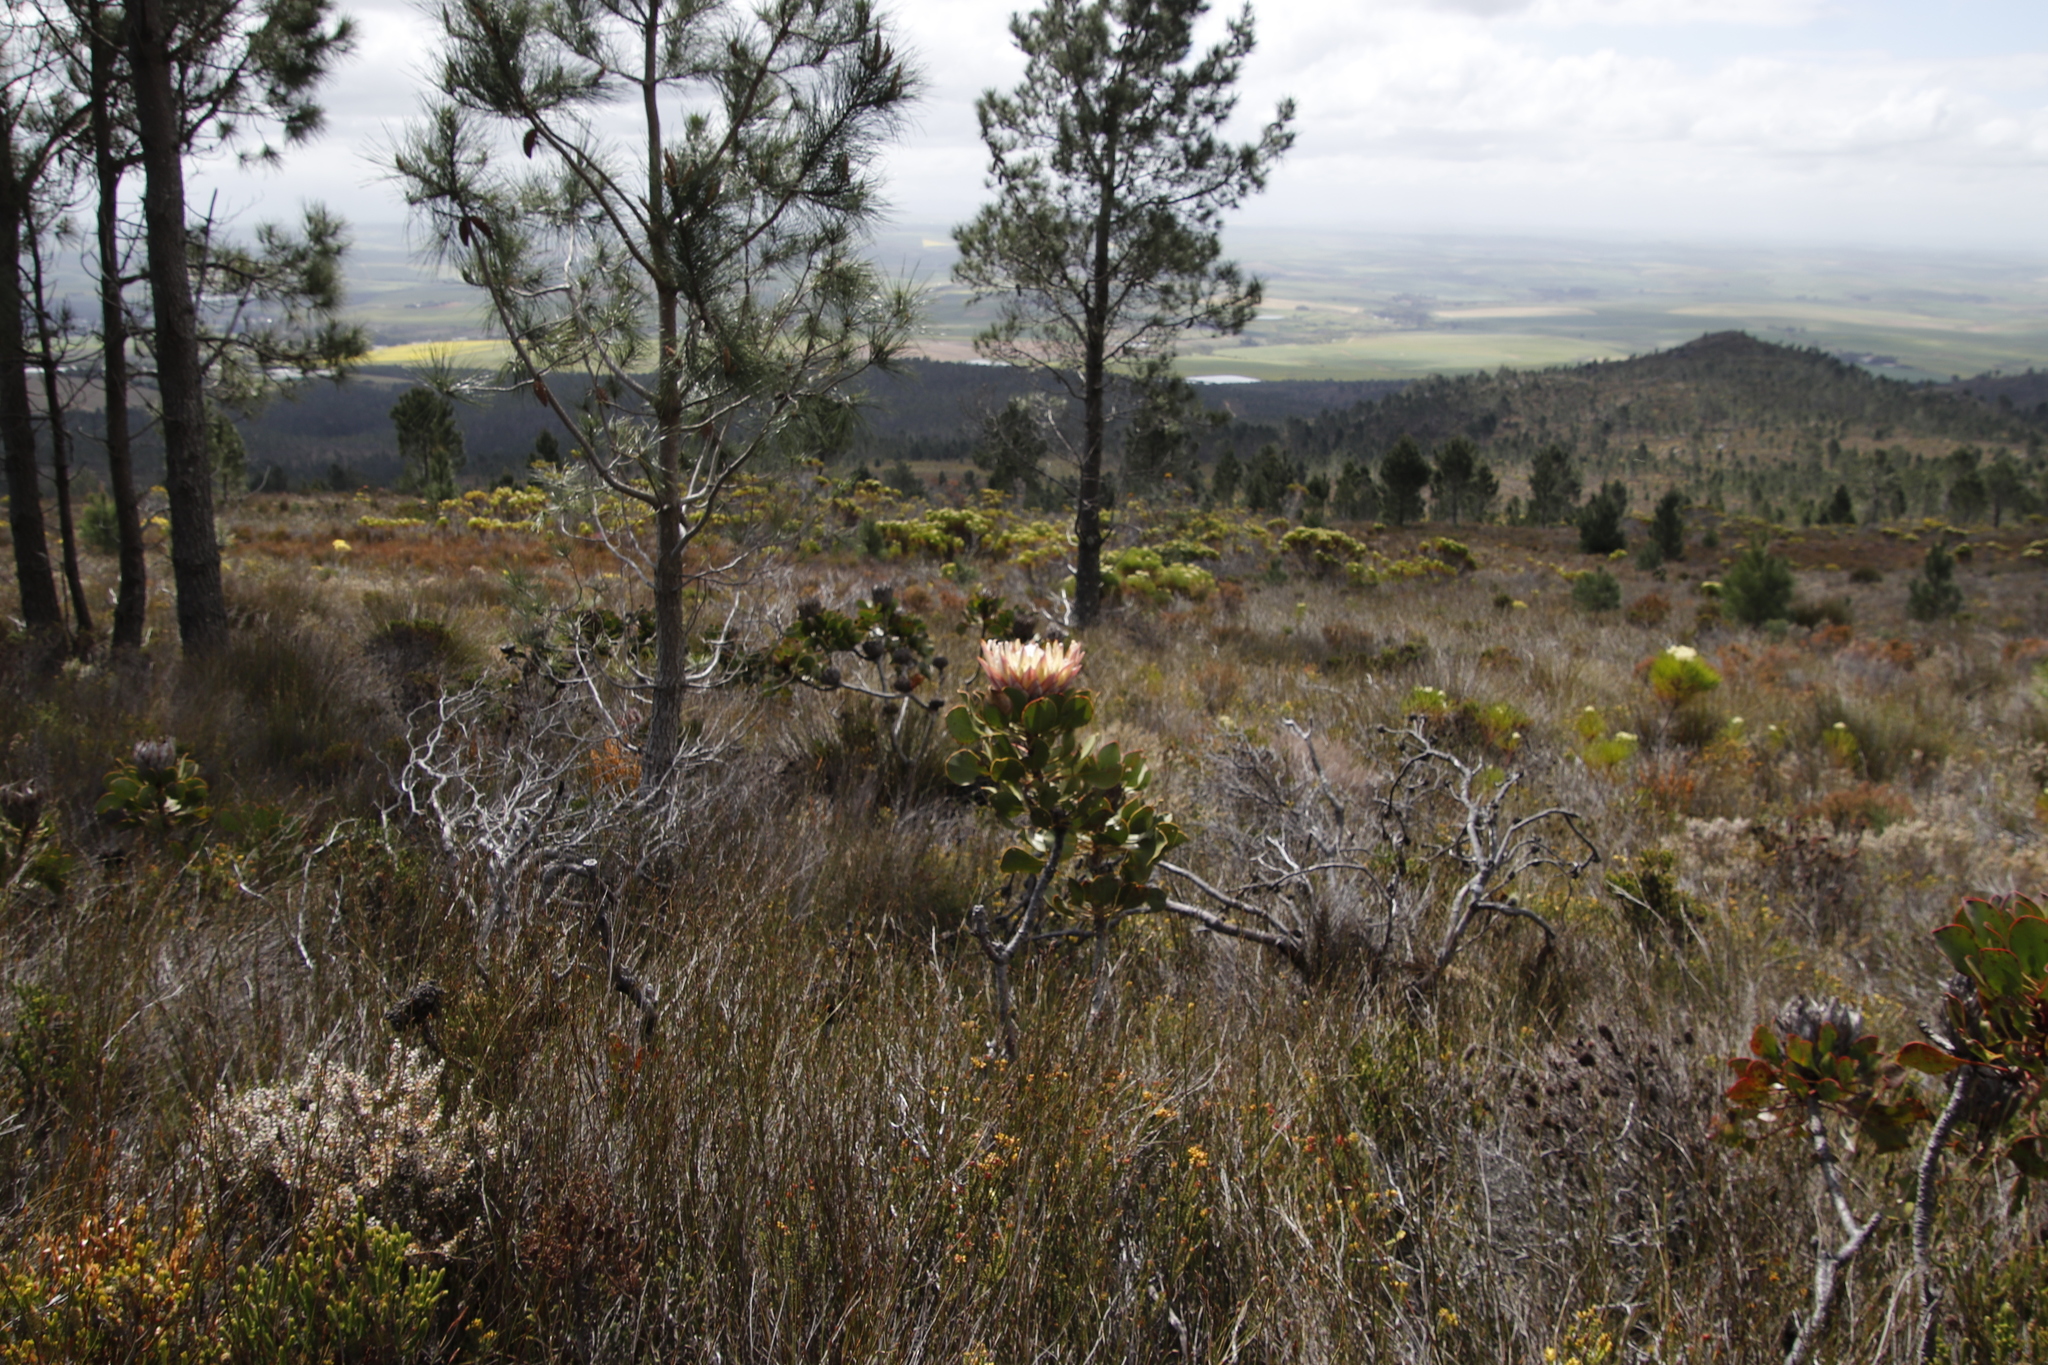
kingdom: Plantae
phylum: Tracheophyta
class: Magnoliopsida
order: Proteales
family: Proteaceae
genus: Protea
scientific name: Protea cynaroides
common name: King protea
